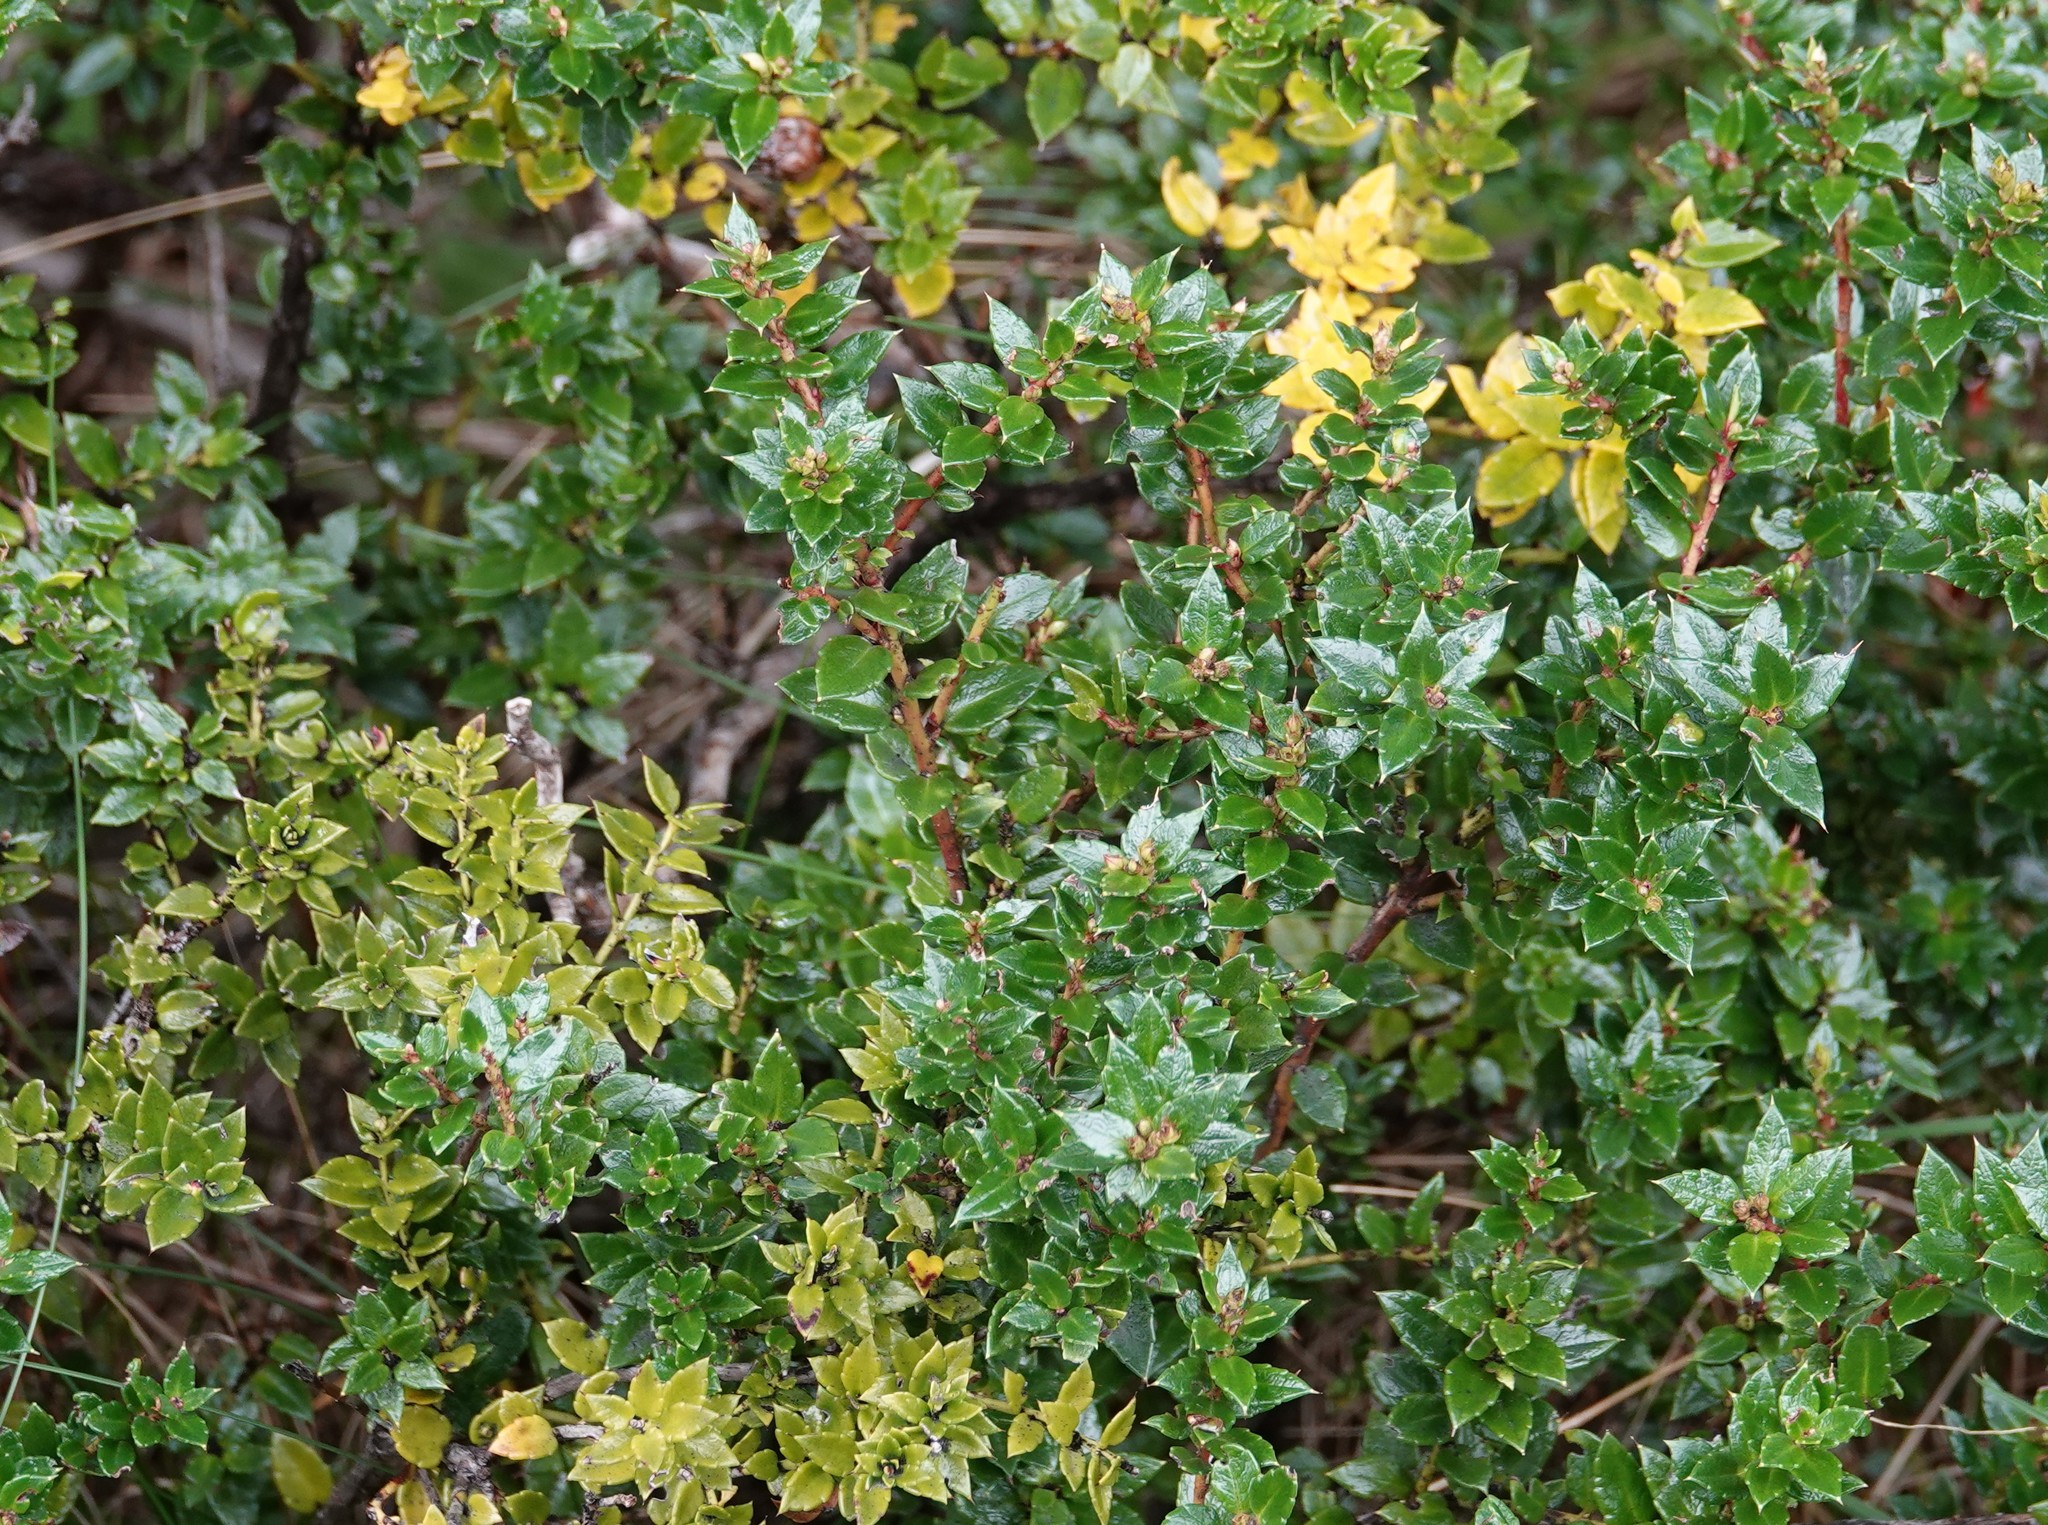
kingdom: Plantae
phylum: Tracheophyta
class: Magnoliopsida
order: Ericales
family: Ericaceae
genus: Gaultheria
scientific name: Gaultheria mucronata
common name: Prickly heath
